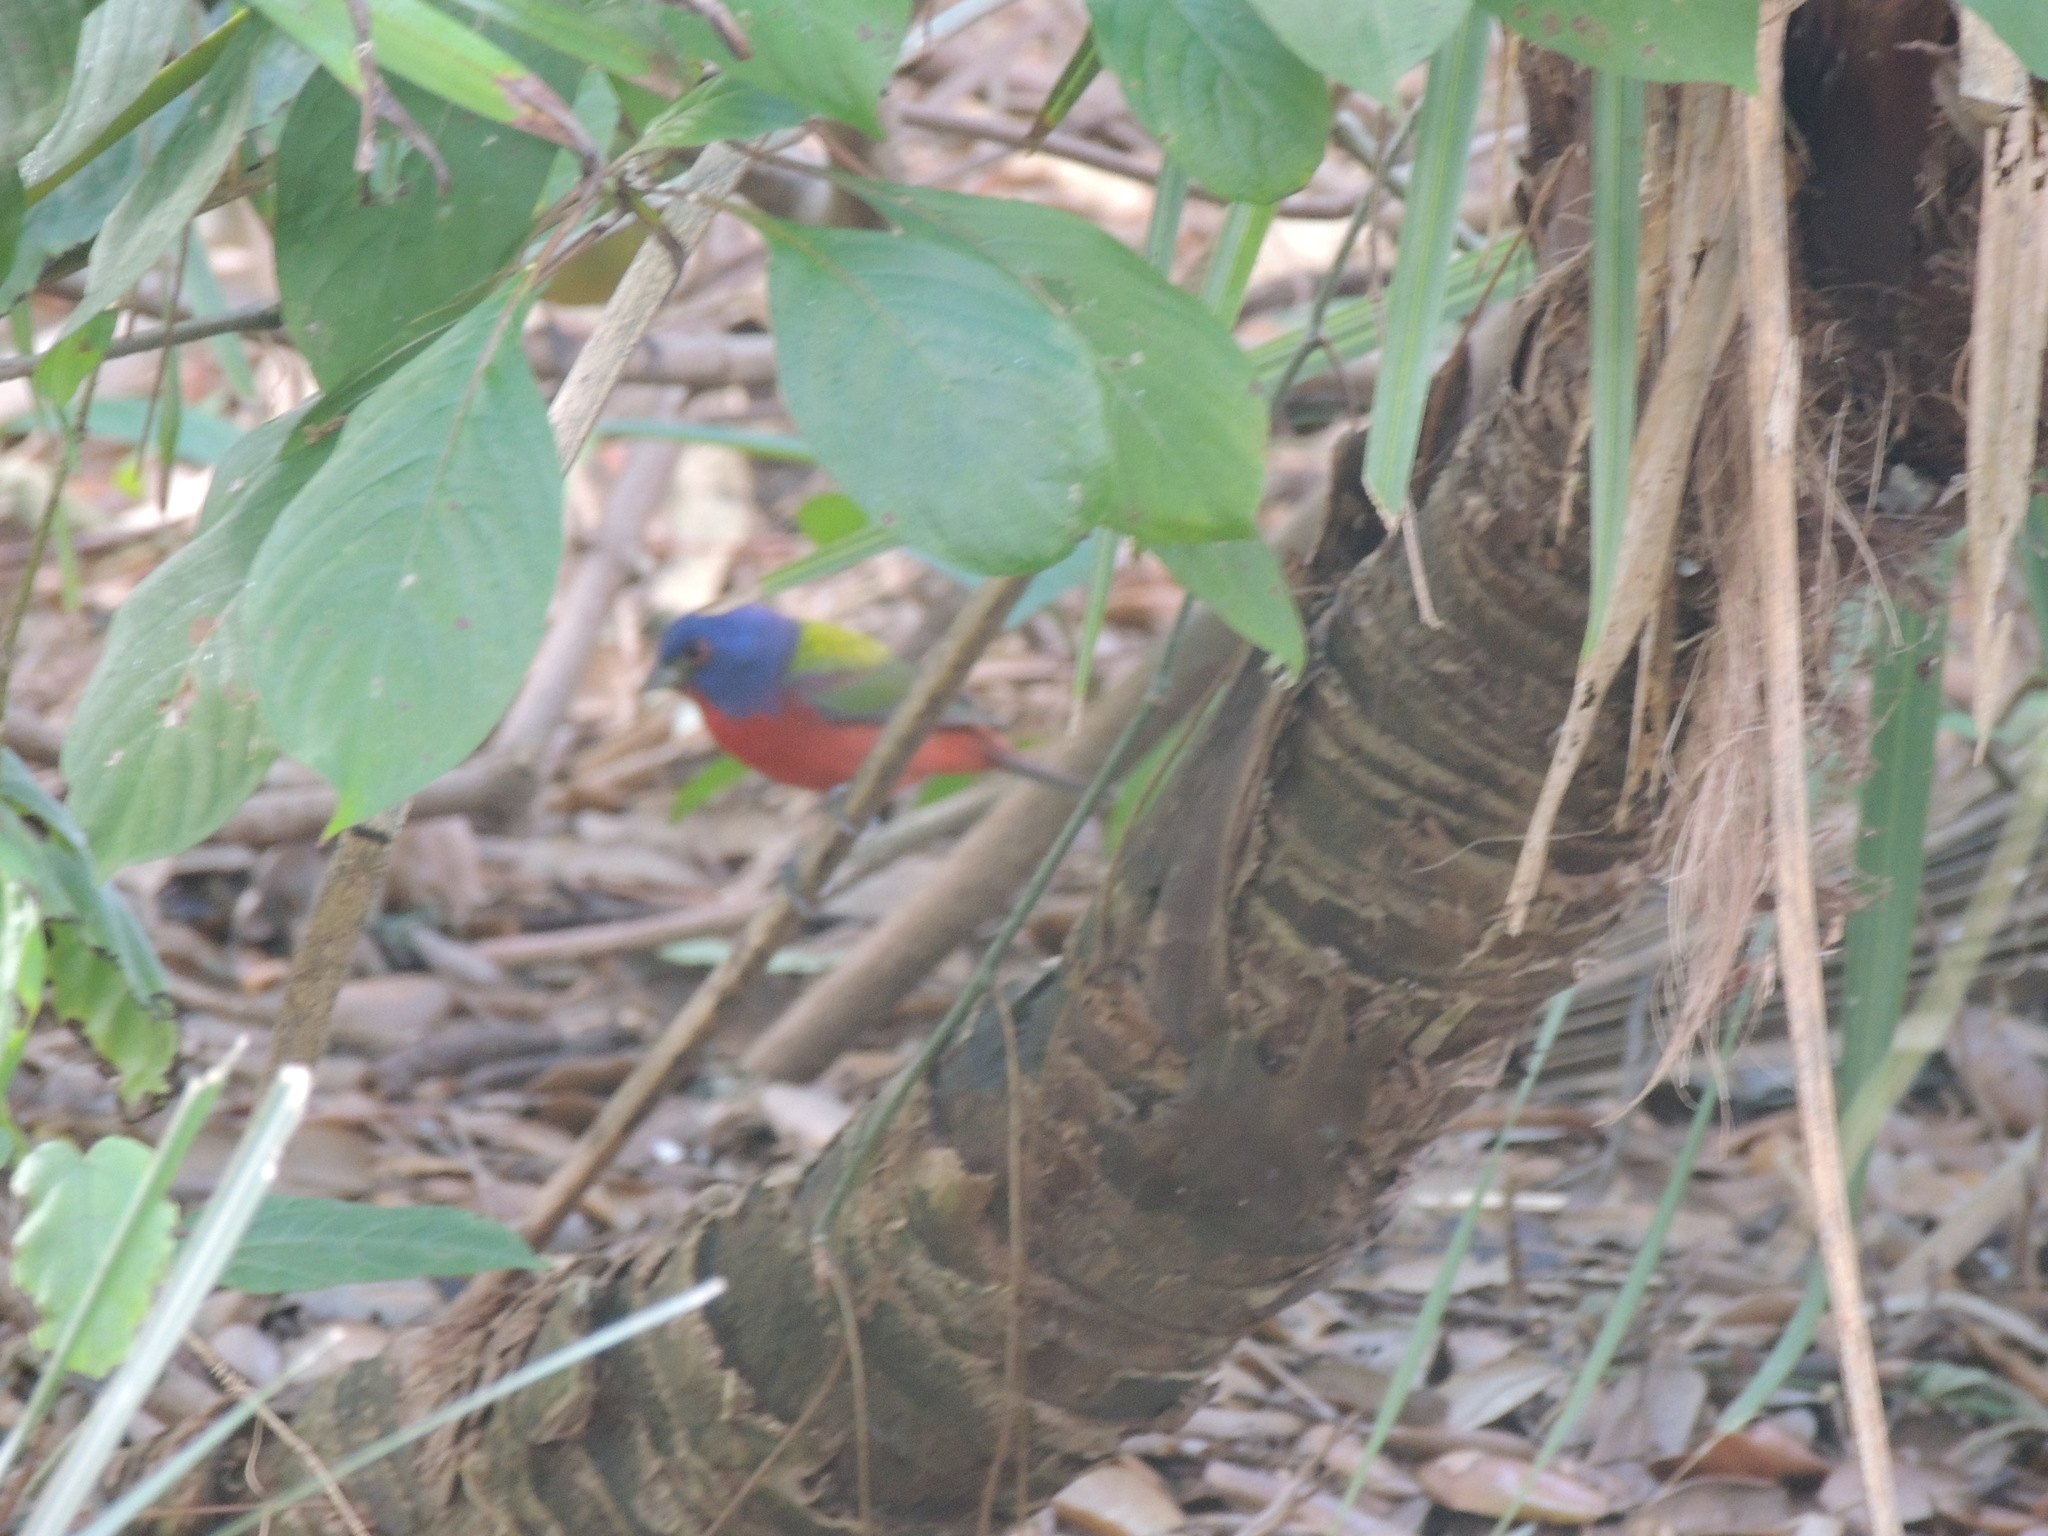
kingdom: Animalia
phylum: Chordata
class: Aves
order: Passeriformes
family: Cardinalidae
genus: Passerina
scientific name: Passerina ciris
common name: Painted bunting
